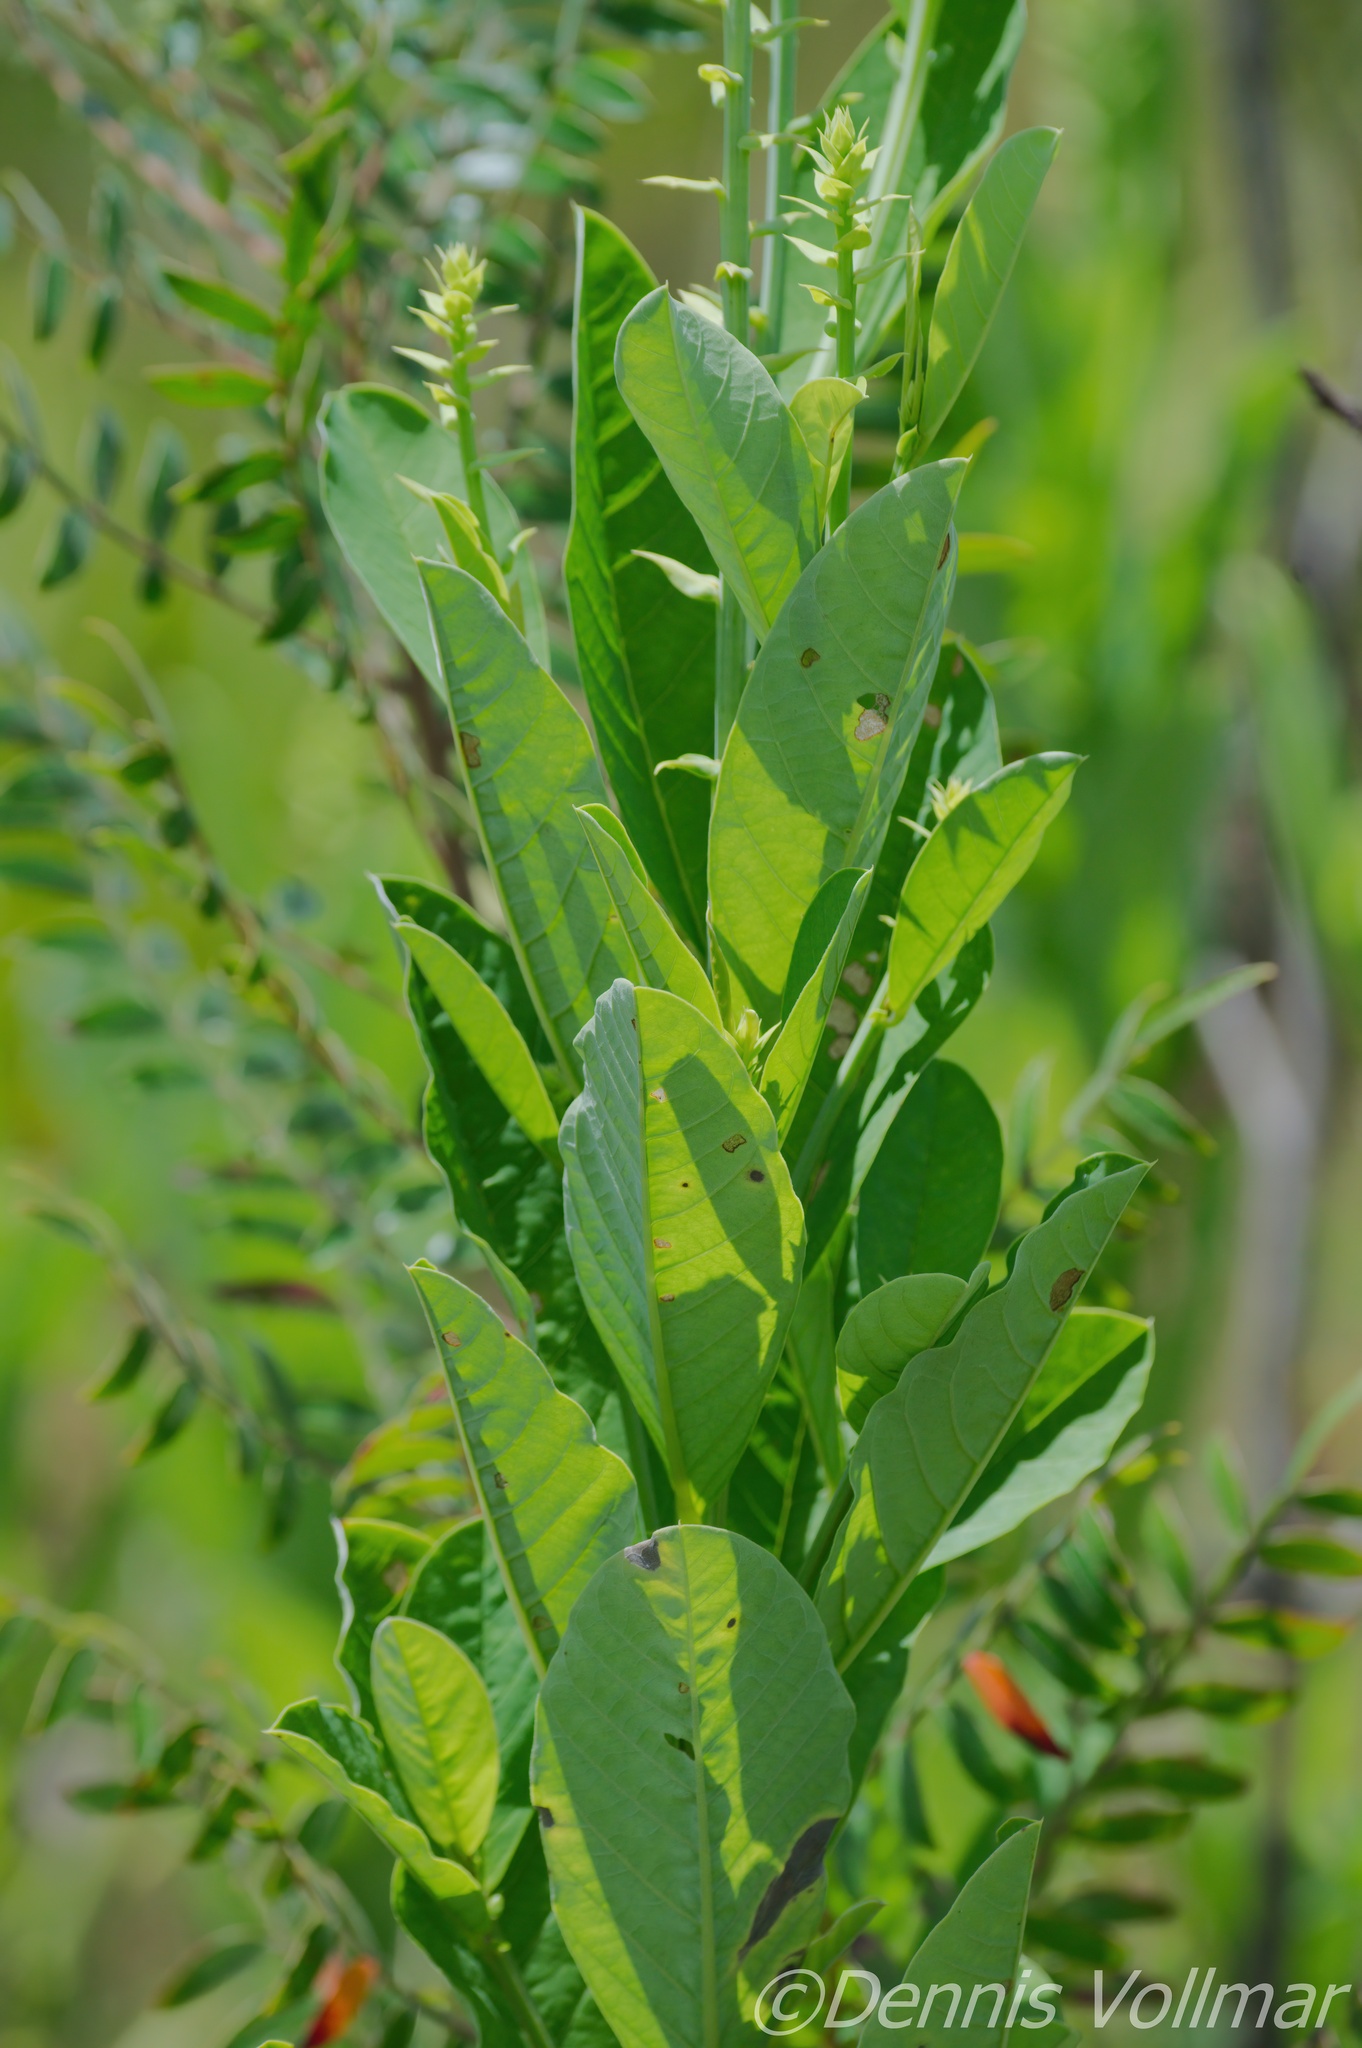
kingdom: Plantae
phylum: Tracheophyta
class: Magnoliopsida
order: Fabales
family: Fabaceae
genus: Crotalaria
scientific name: Crotalaria spectabilis
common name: Showy rattlebox
